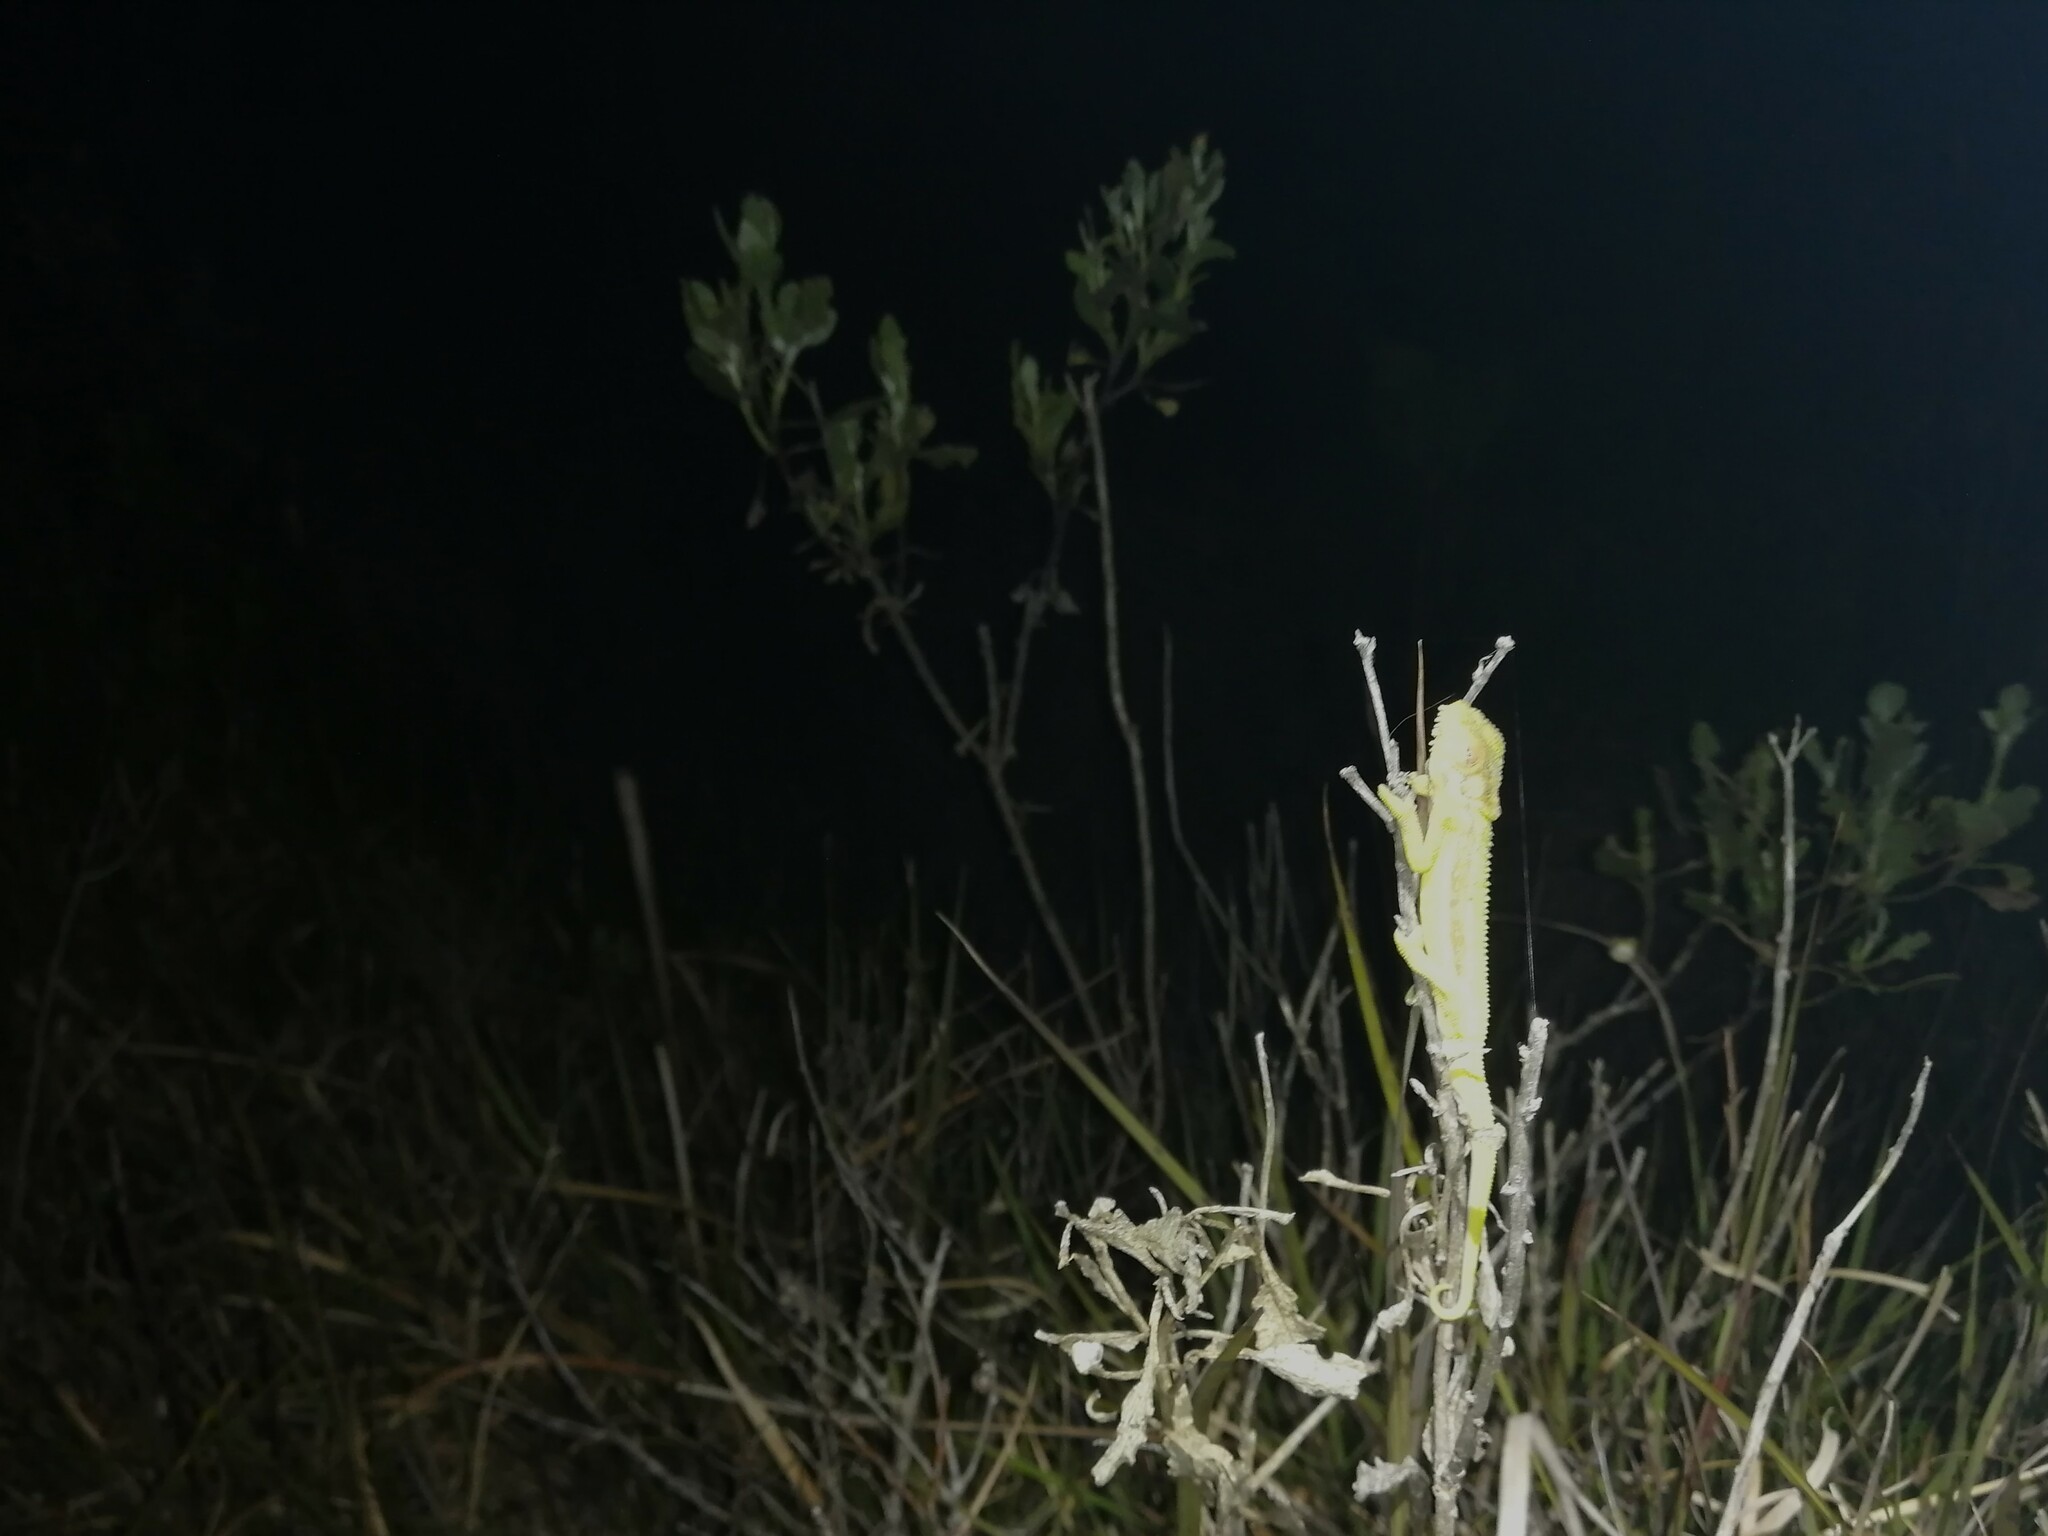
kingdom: Animalia
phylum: Chordata
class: Squamata
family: Chamaeleonidae
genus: Bradypodion
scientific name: Bradypodion pumilum
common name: Cape dwarf chameleon
